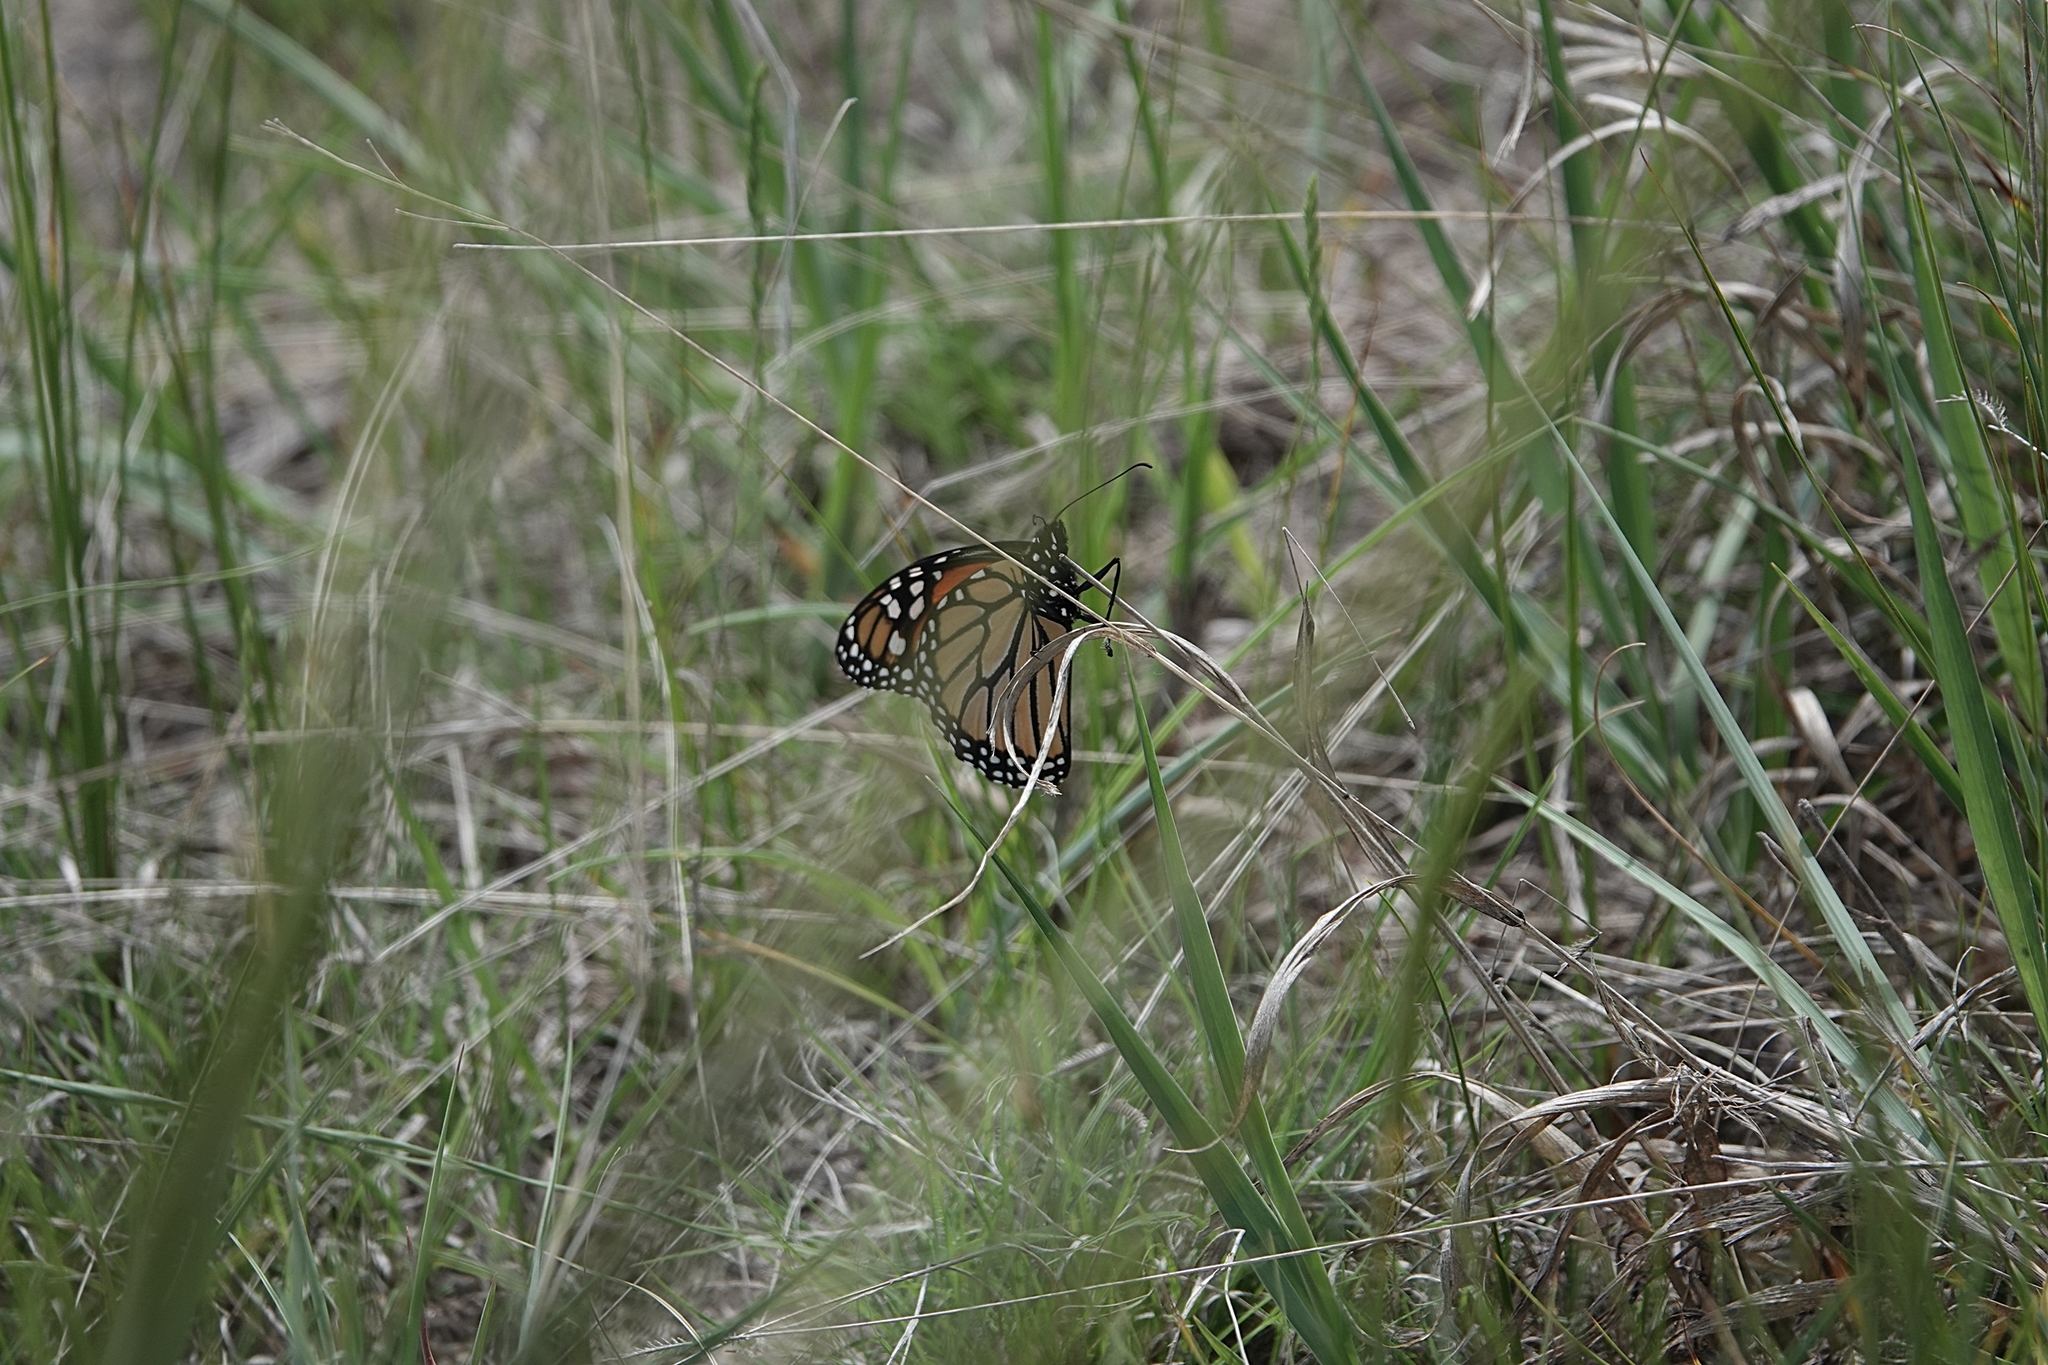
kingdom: Animalia
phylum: Arthropoda
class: Insecta
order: Lepidoptera
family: Nymphalidae
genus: Danaus
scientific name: Danaus plexippus
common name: Monarch
